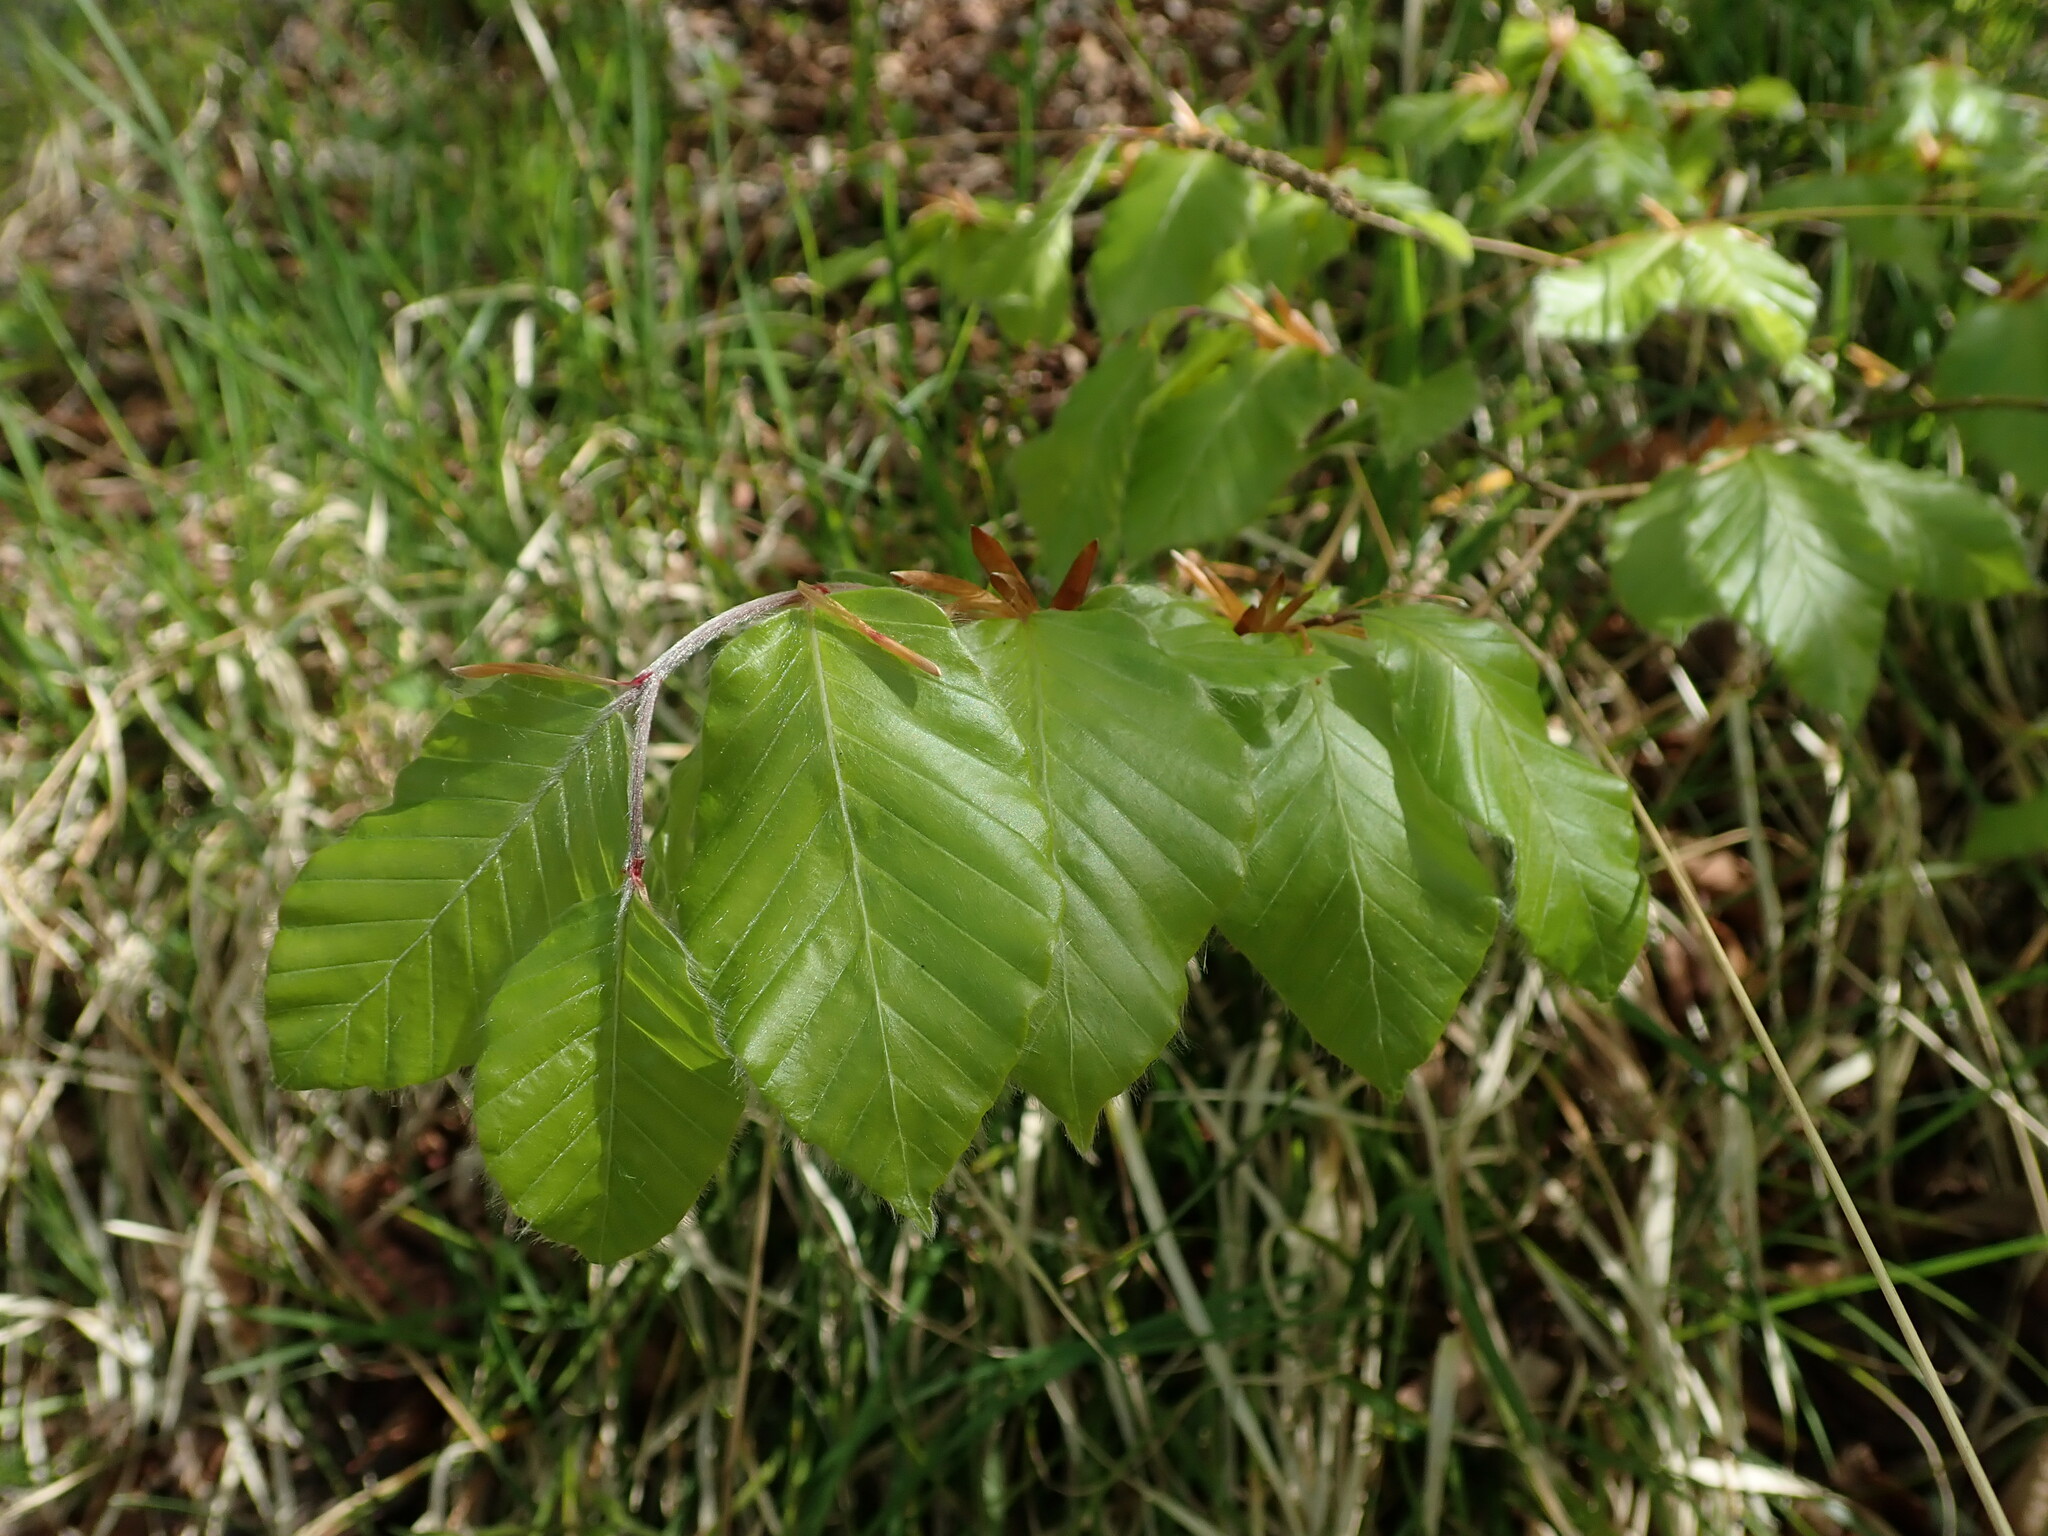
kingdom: Plantae
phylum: Tracheophyta
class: Magnoliopsida
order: Fagales
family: Fagaceae
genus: Fagus
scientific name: Fagus sylvatica
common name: Beech
